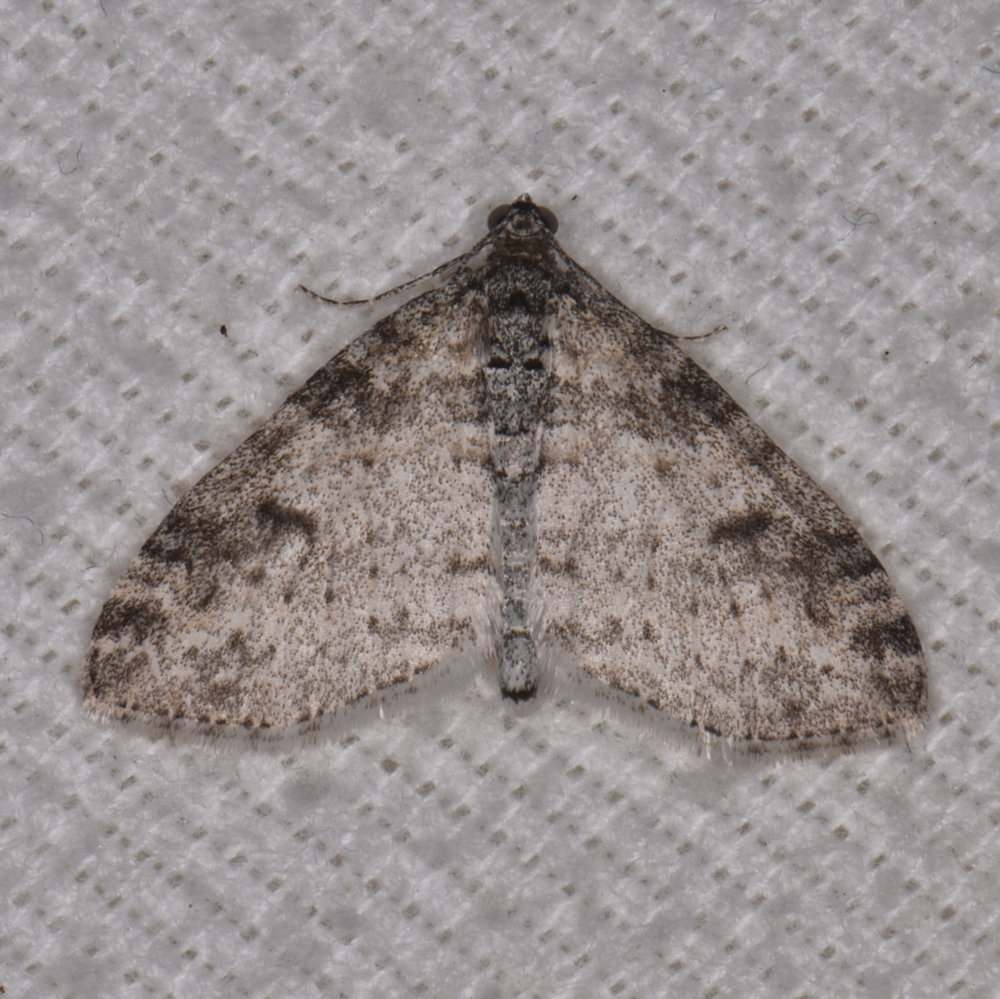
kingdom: Animalia
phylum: Arthropoda
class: Insecta
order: Lepidoptera
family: Geometridae
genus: Lobophora
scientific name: Lobophora nivigerata
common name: Powdered bigwing
